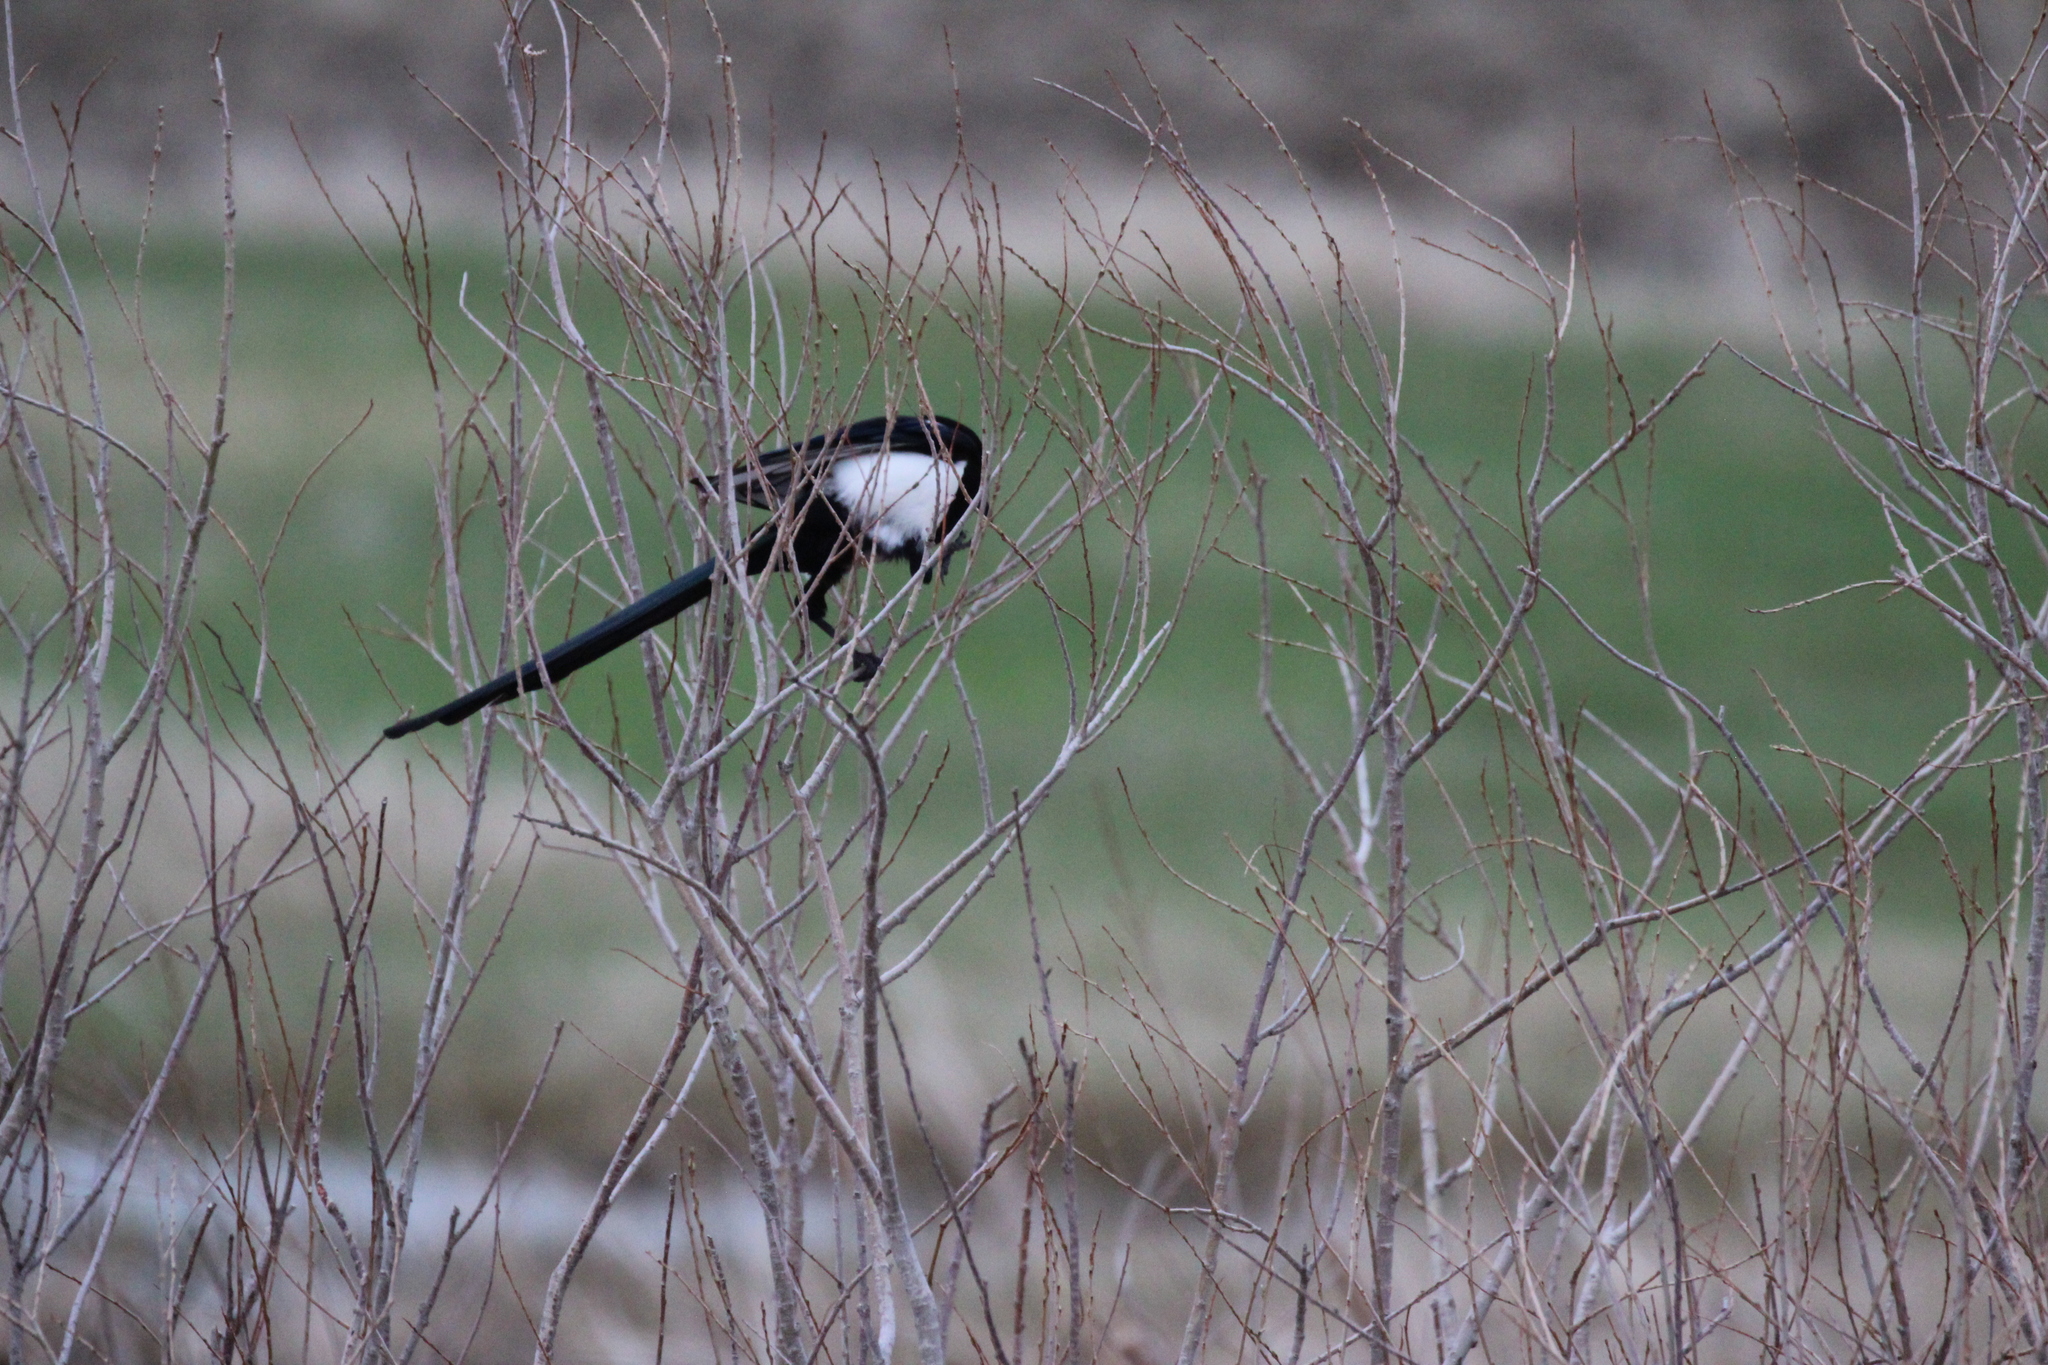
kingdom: Animalia
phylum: Chordata
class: Aves
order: Passeriformes
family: Corvidae
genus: Pica
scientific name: Pica hudsonia
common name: Black-billed magpie
